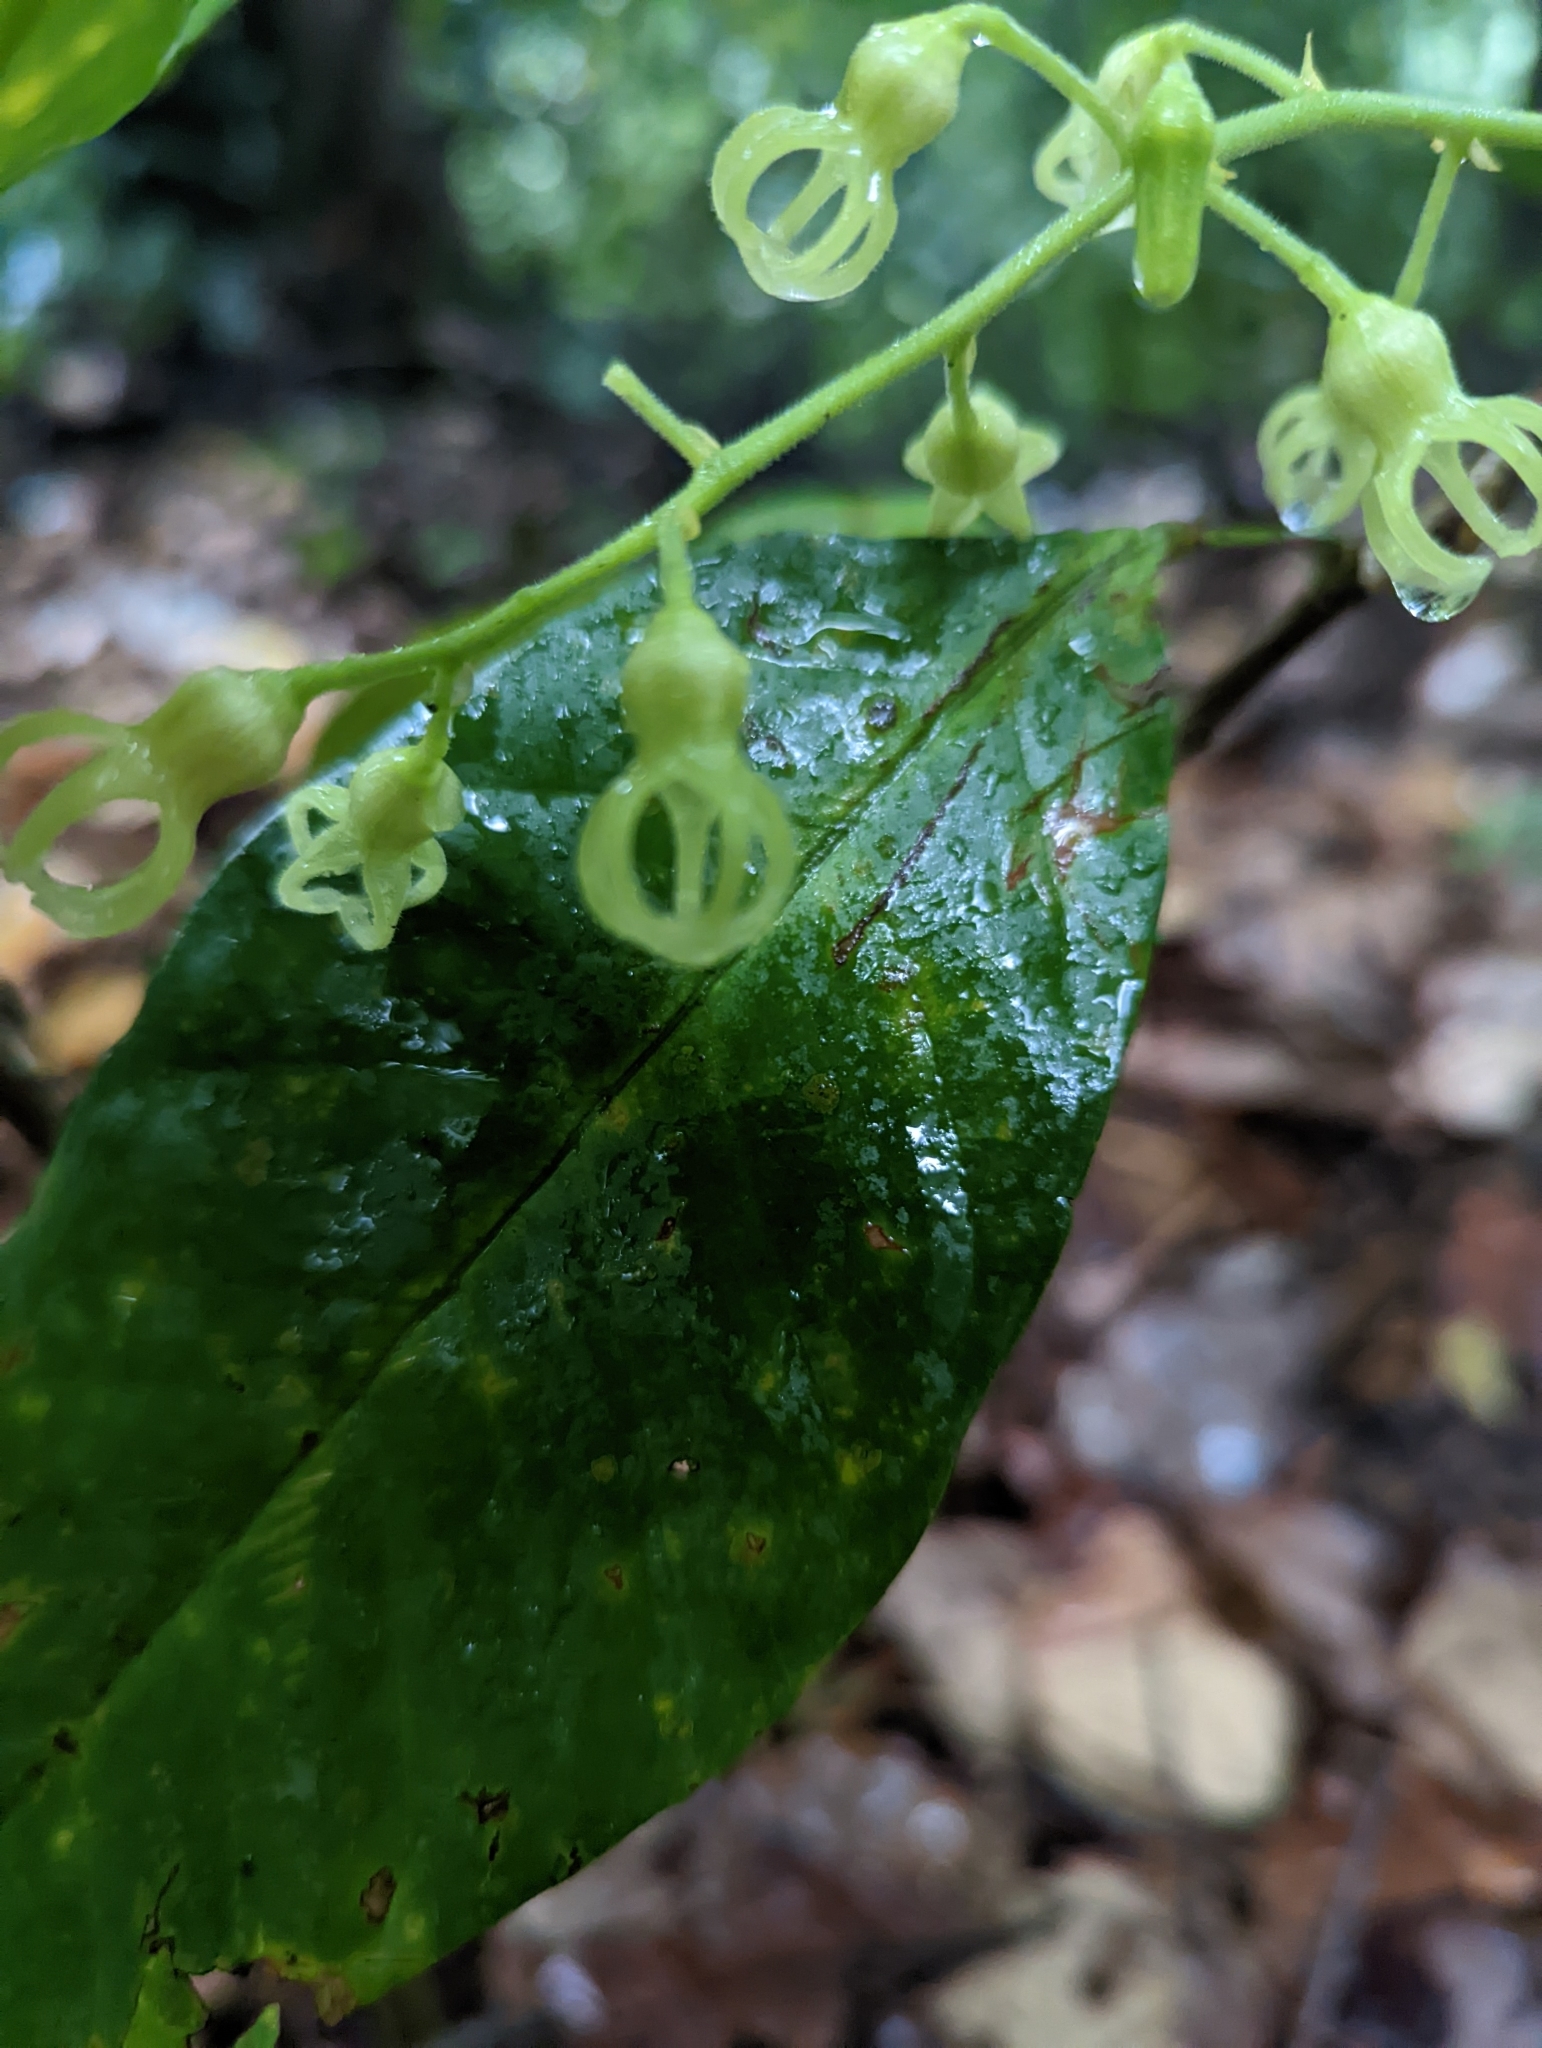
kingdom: Plantae
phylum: Tracheophyta
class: Magnoliopsida
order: Malvales
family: Malvaceae
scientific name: Malvaceae
